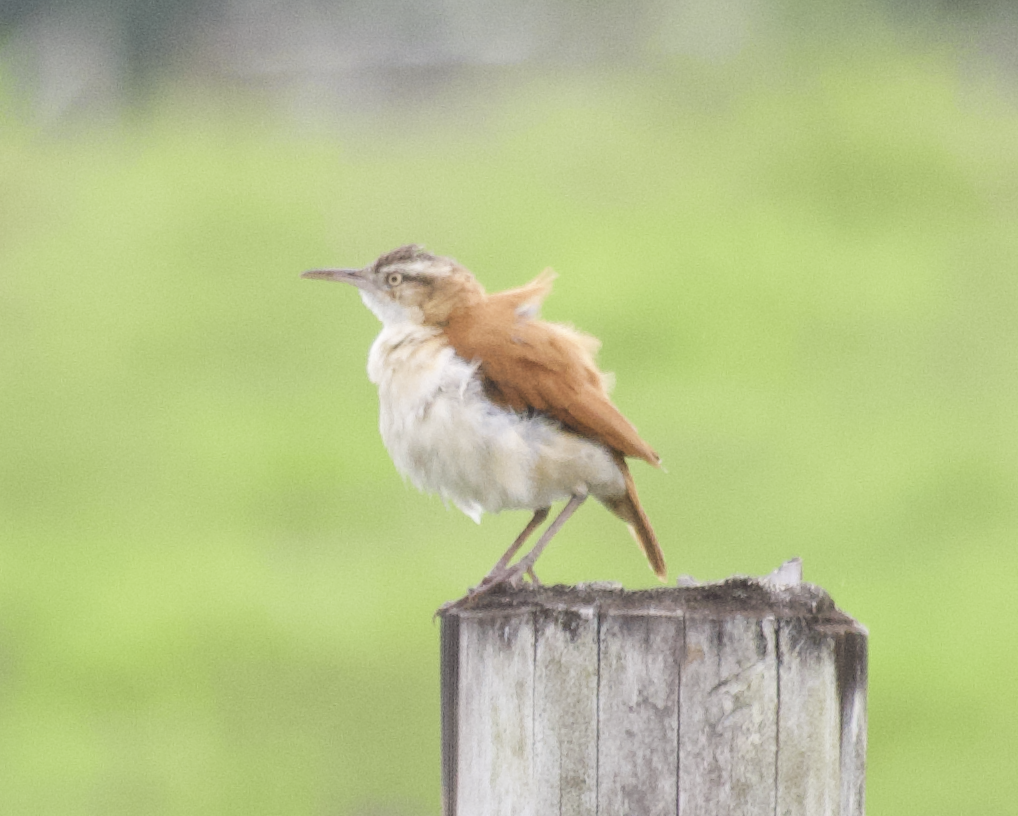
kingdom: Animalia
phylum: Chordata
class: Aves
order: Passeriformes
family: Furnariidae
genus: Furnarius
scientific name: Furnarius leucopus
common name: Pale-legged hornero
